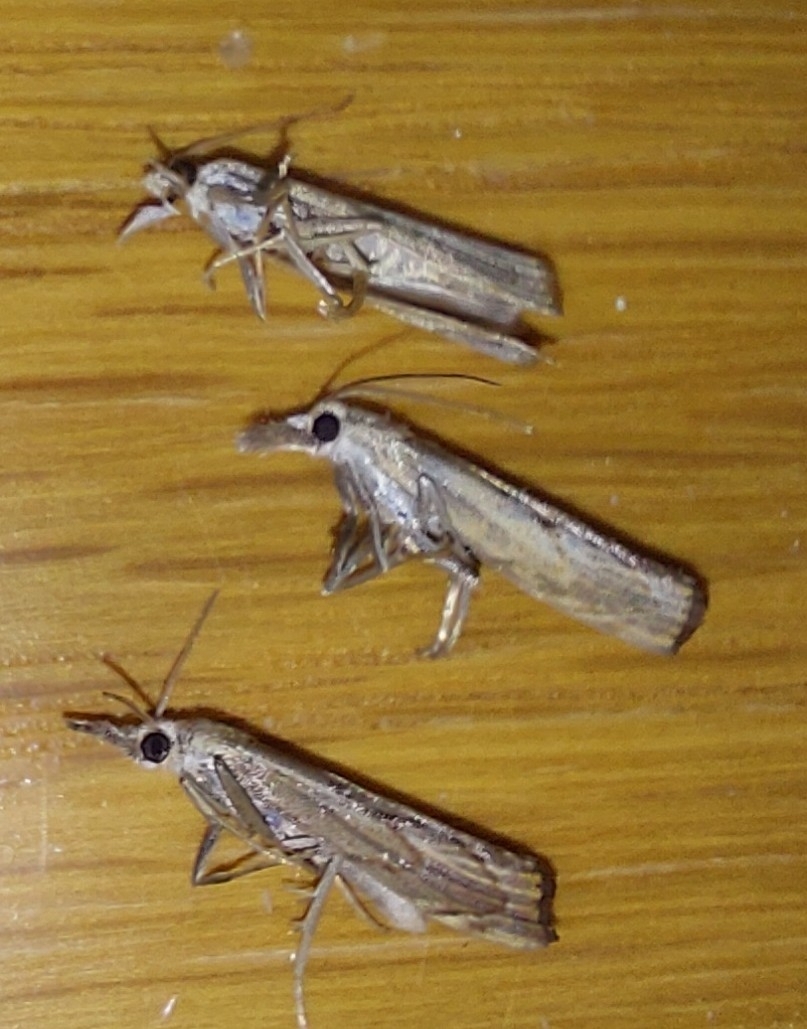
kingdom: Animalia
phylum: Arthropoda
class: Insecta
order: Lepidoptera
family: Crambidae
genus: Agriphila
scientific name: Agriphila geniculea
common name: Elbow-stripe grass-veneer
